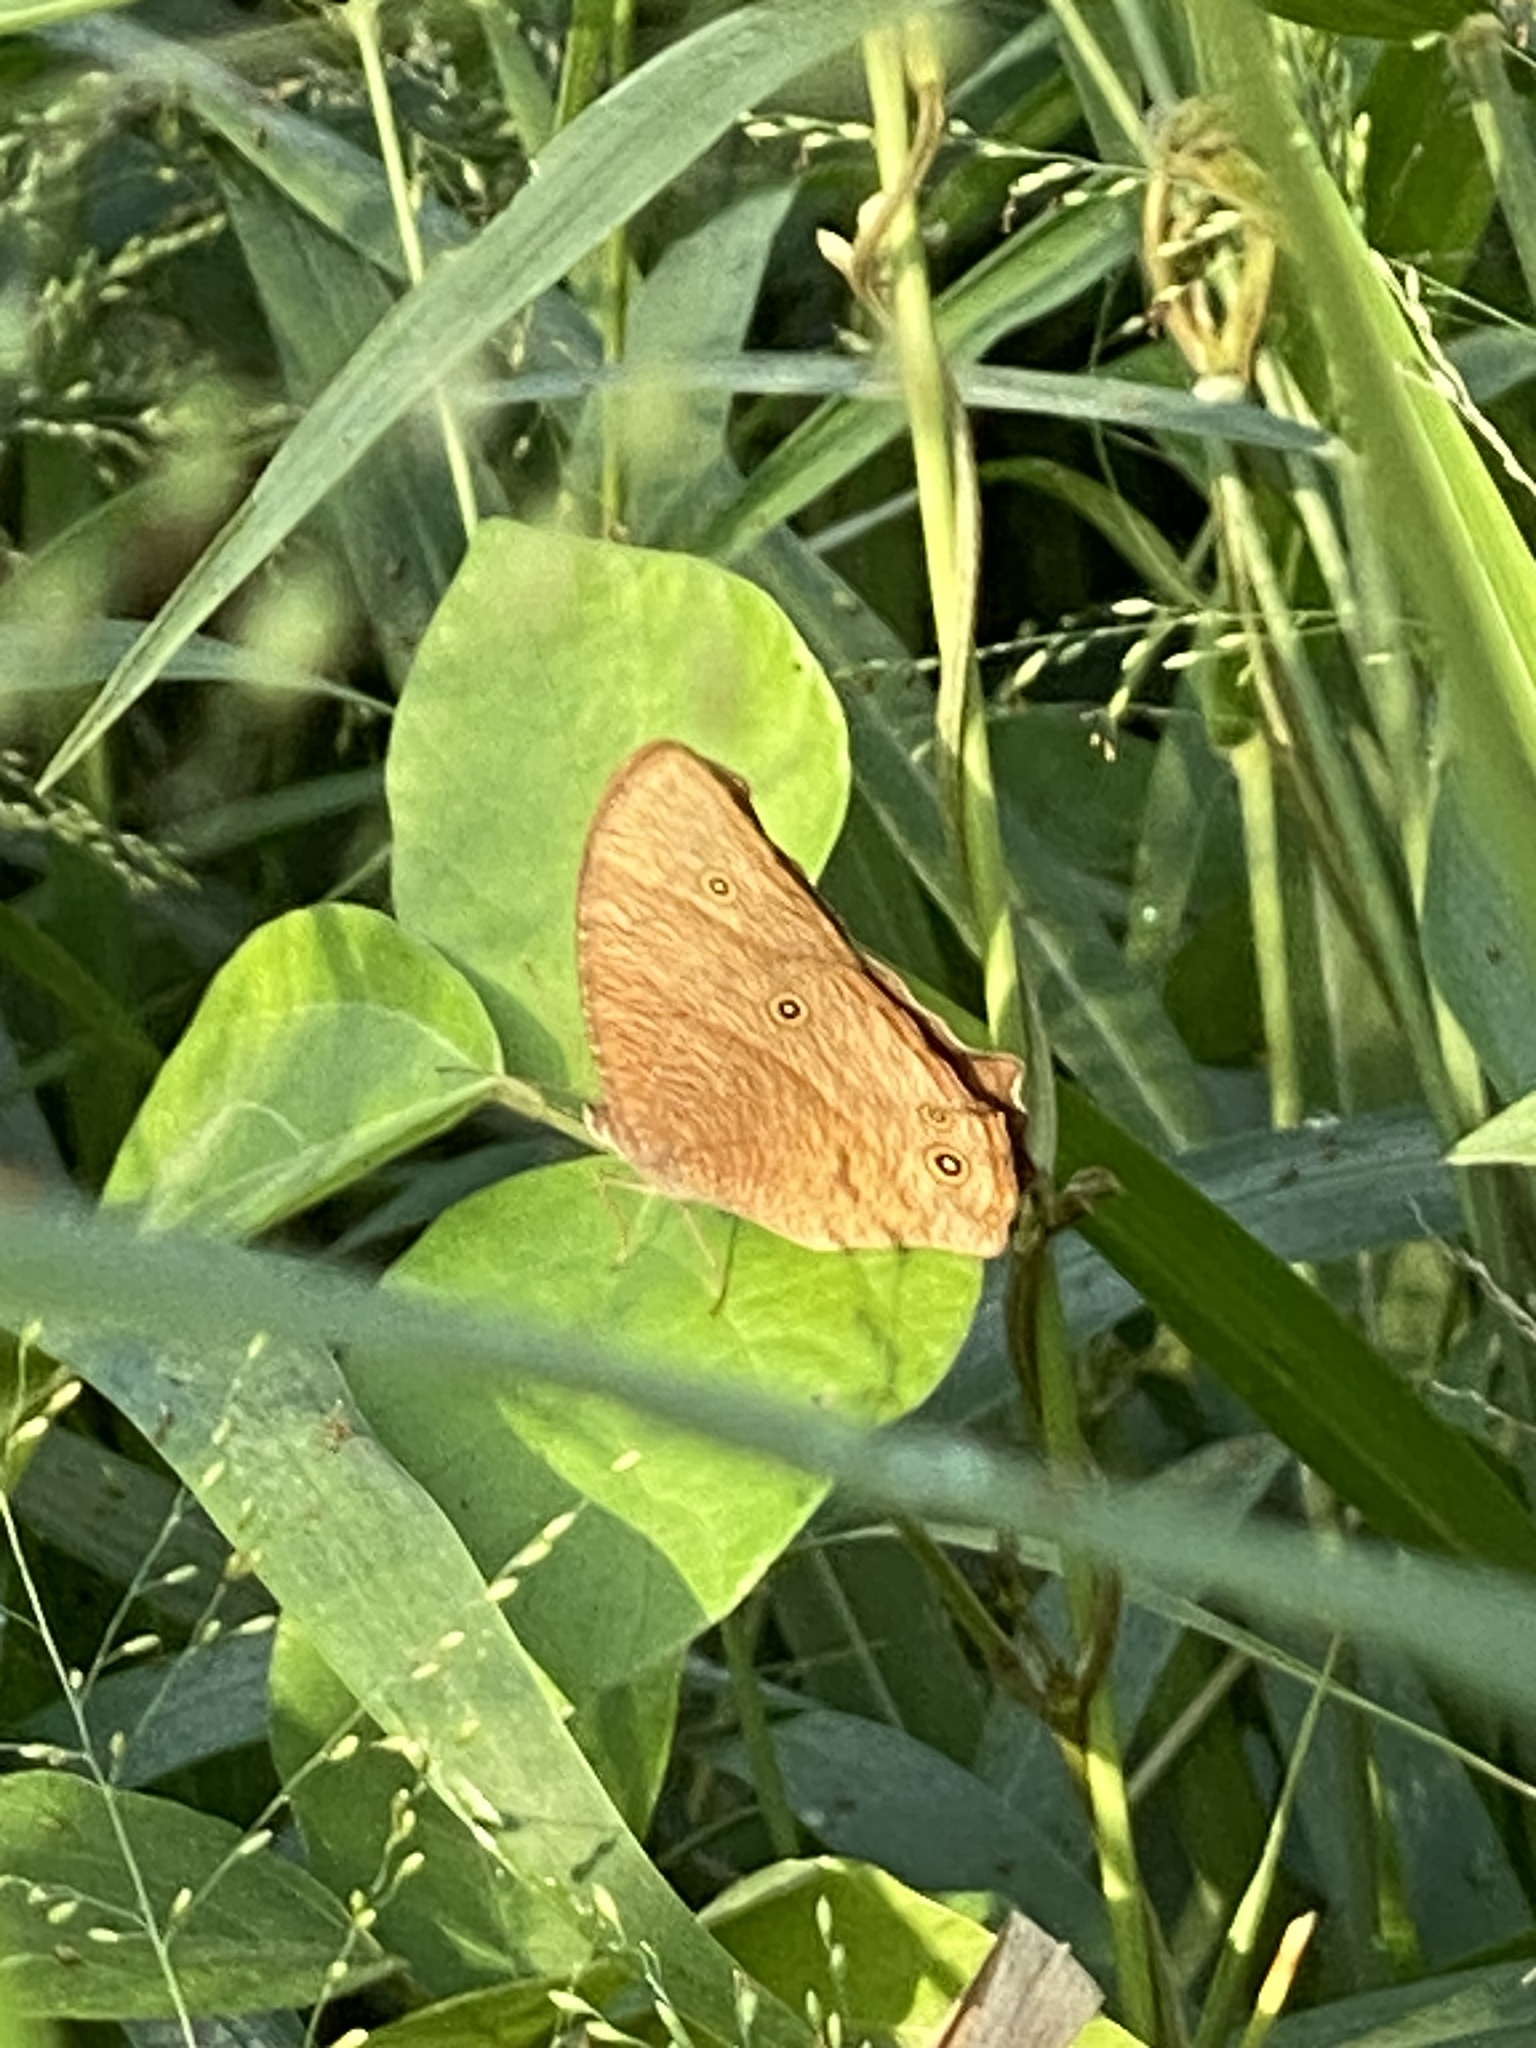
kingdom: Animalia
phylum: Arthropoda
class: Insecta
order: Lepidoptera
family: Nymphalidae
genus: Melanitis
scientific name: Melanitis leda
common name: Twilight brown
